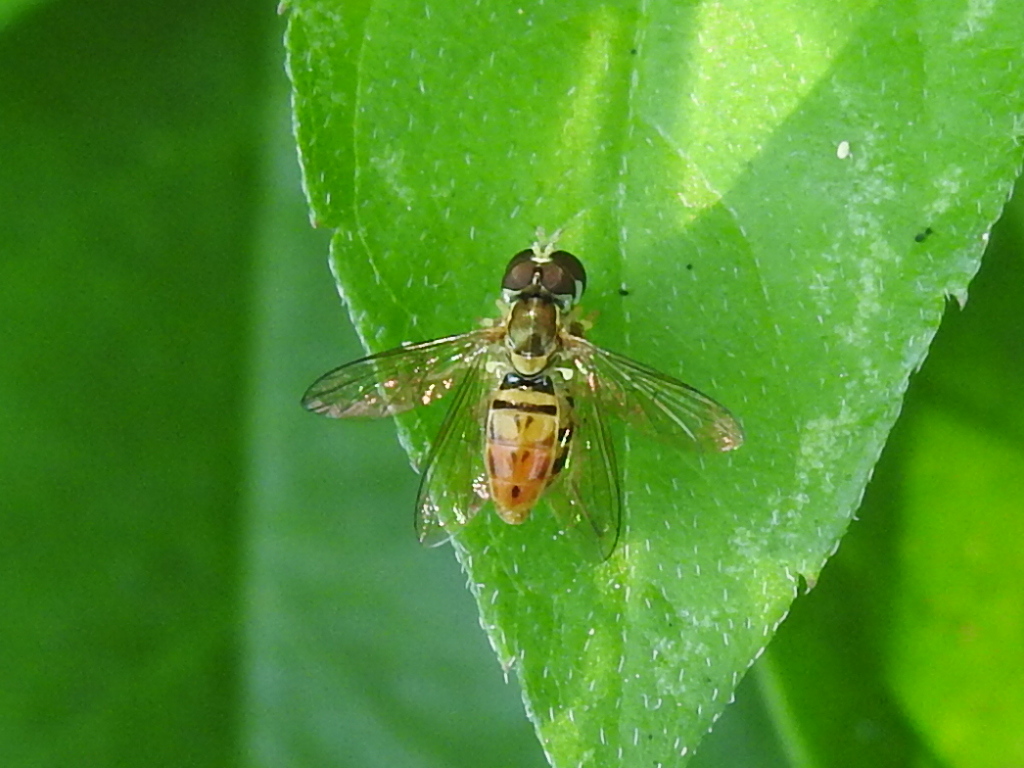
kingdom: Animalia
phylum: Arthropoda
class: Insecta
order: Diptera
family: Syrphidae
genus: Toxomerus
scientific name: Toxomerus marginatus
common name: Syrphid fly
